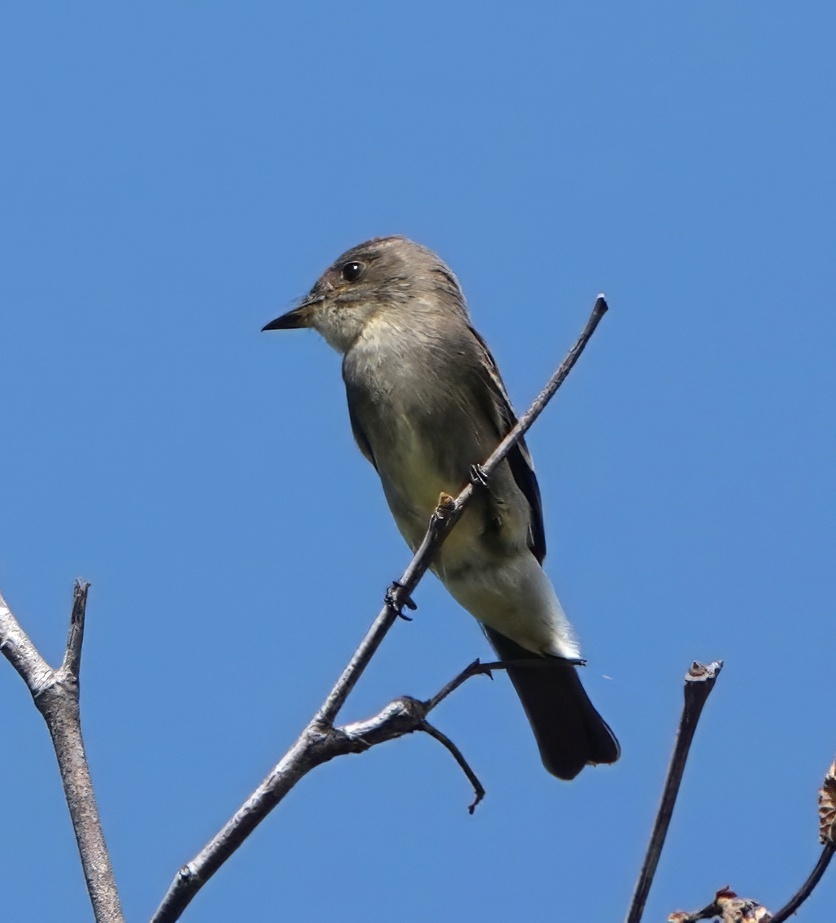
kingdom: Animalia
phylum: Chordata
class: Aves
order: Passeriformes
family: Tyrannidae
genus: Contopus
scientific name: Contopus sordidulus
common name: Western wood-pewee
